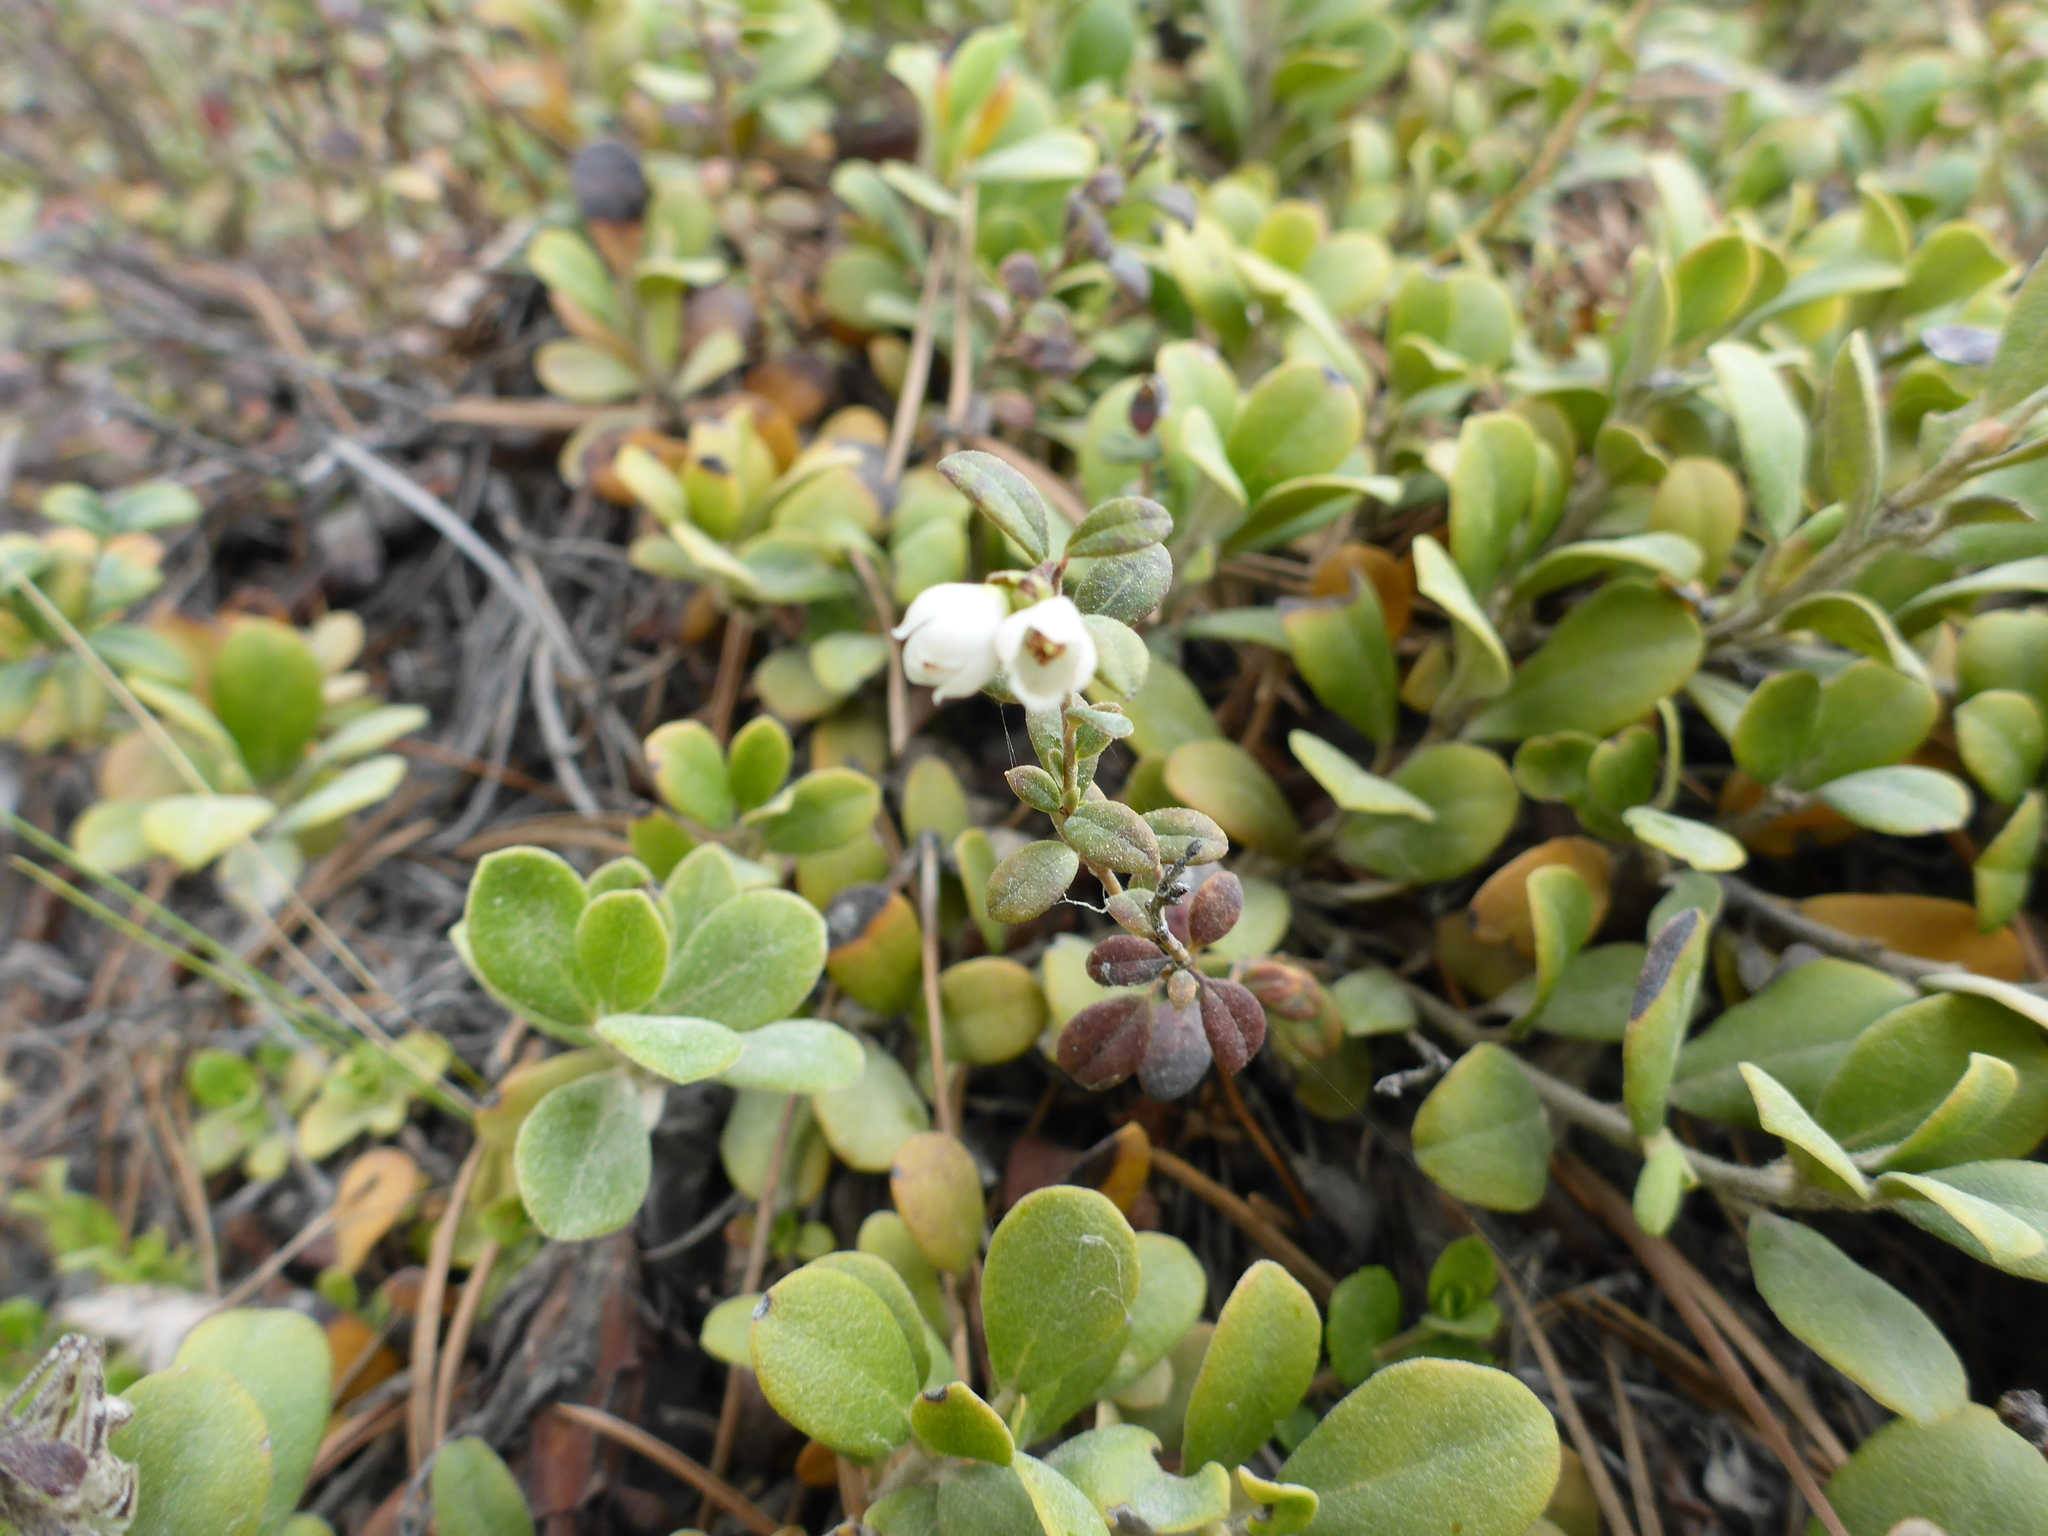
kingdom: Plantae
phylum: Tracheophyta
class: Magnoliopsida
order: Ericales
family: Ericaceae
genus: Vaccinium
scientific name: Vaccinium vitis-idaea
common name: Cowberry
